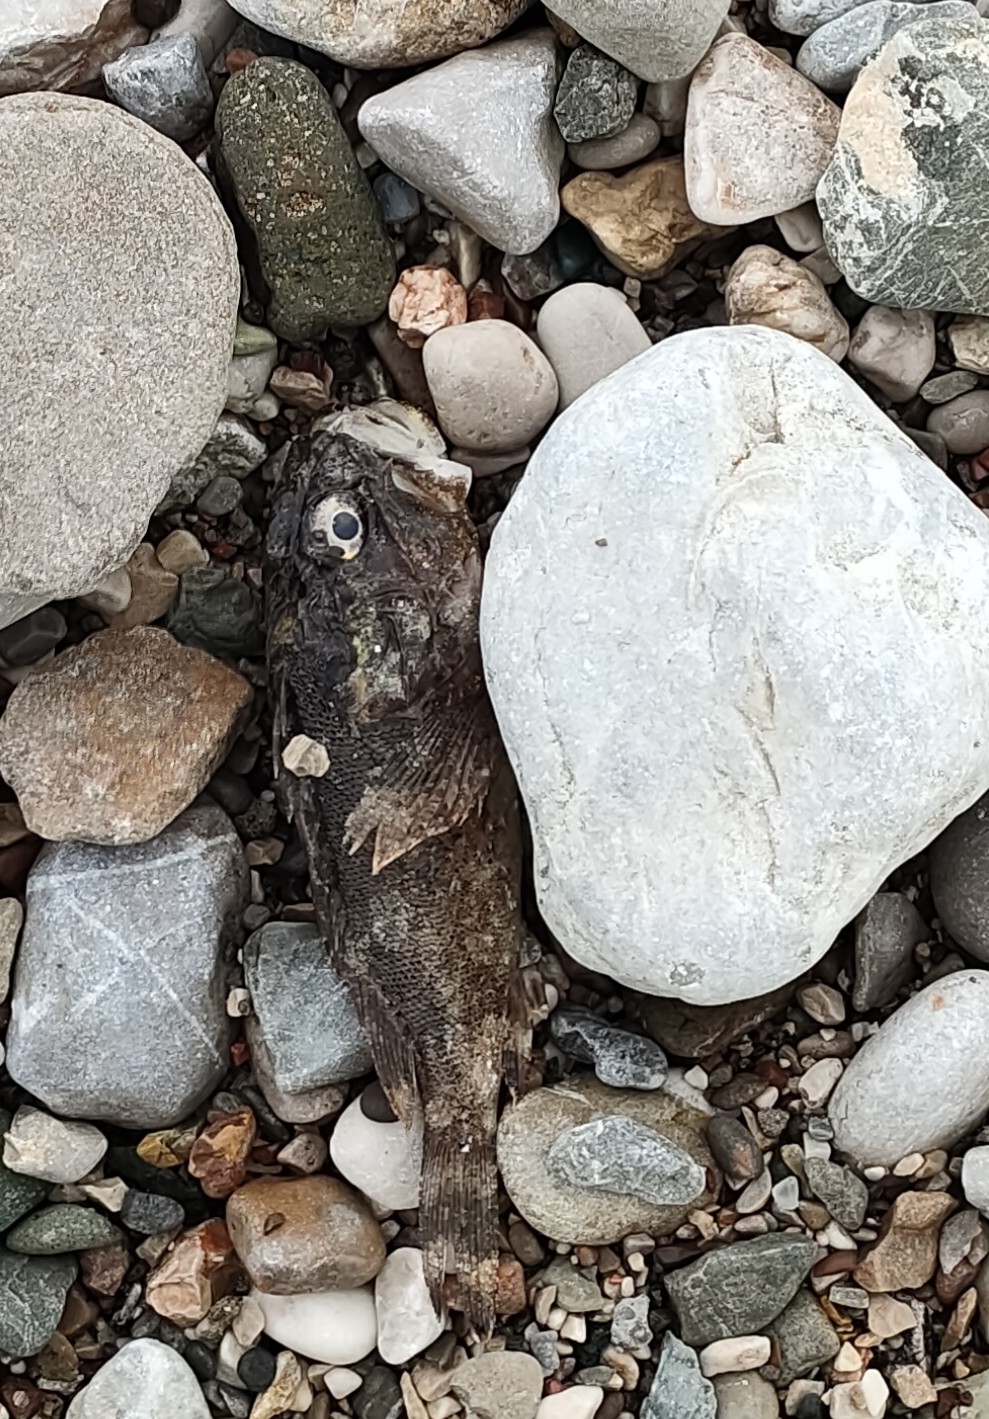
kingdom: Animalia
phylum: Chordata
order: Scorpaeniformes
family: Scorpaenidae
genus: Scorpaena
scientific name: Scorpaena porcus
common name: Black scorpionfish
